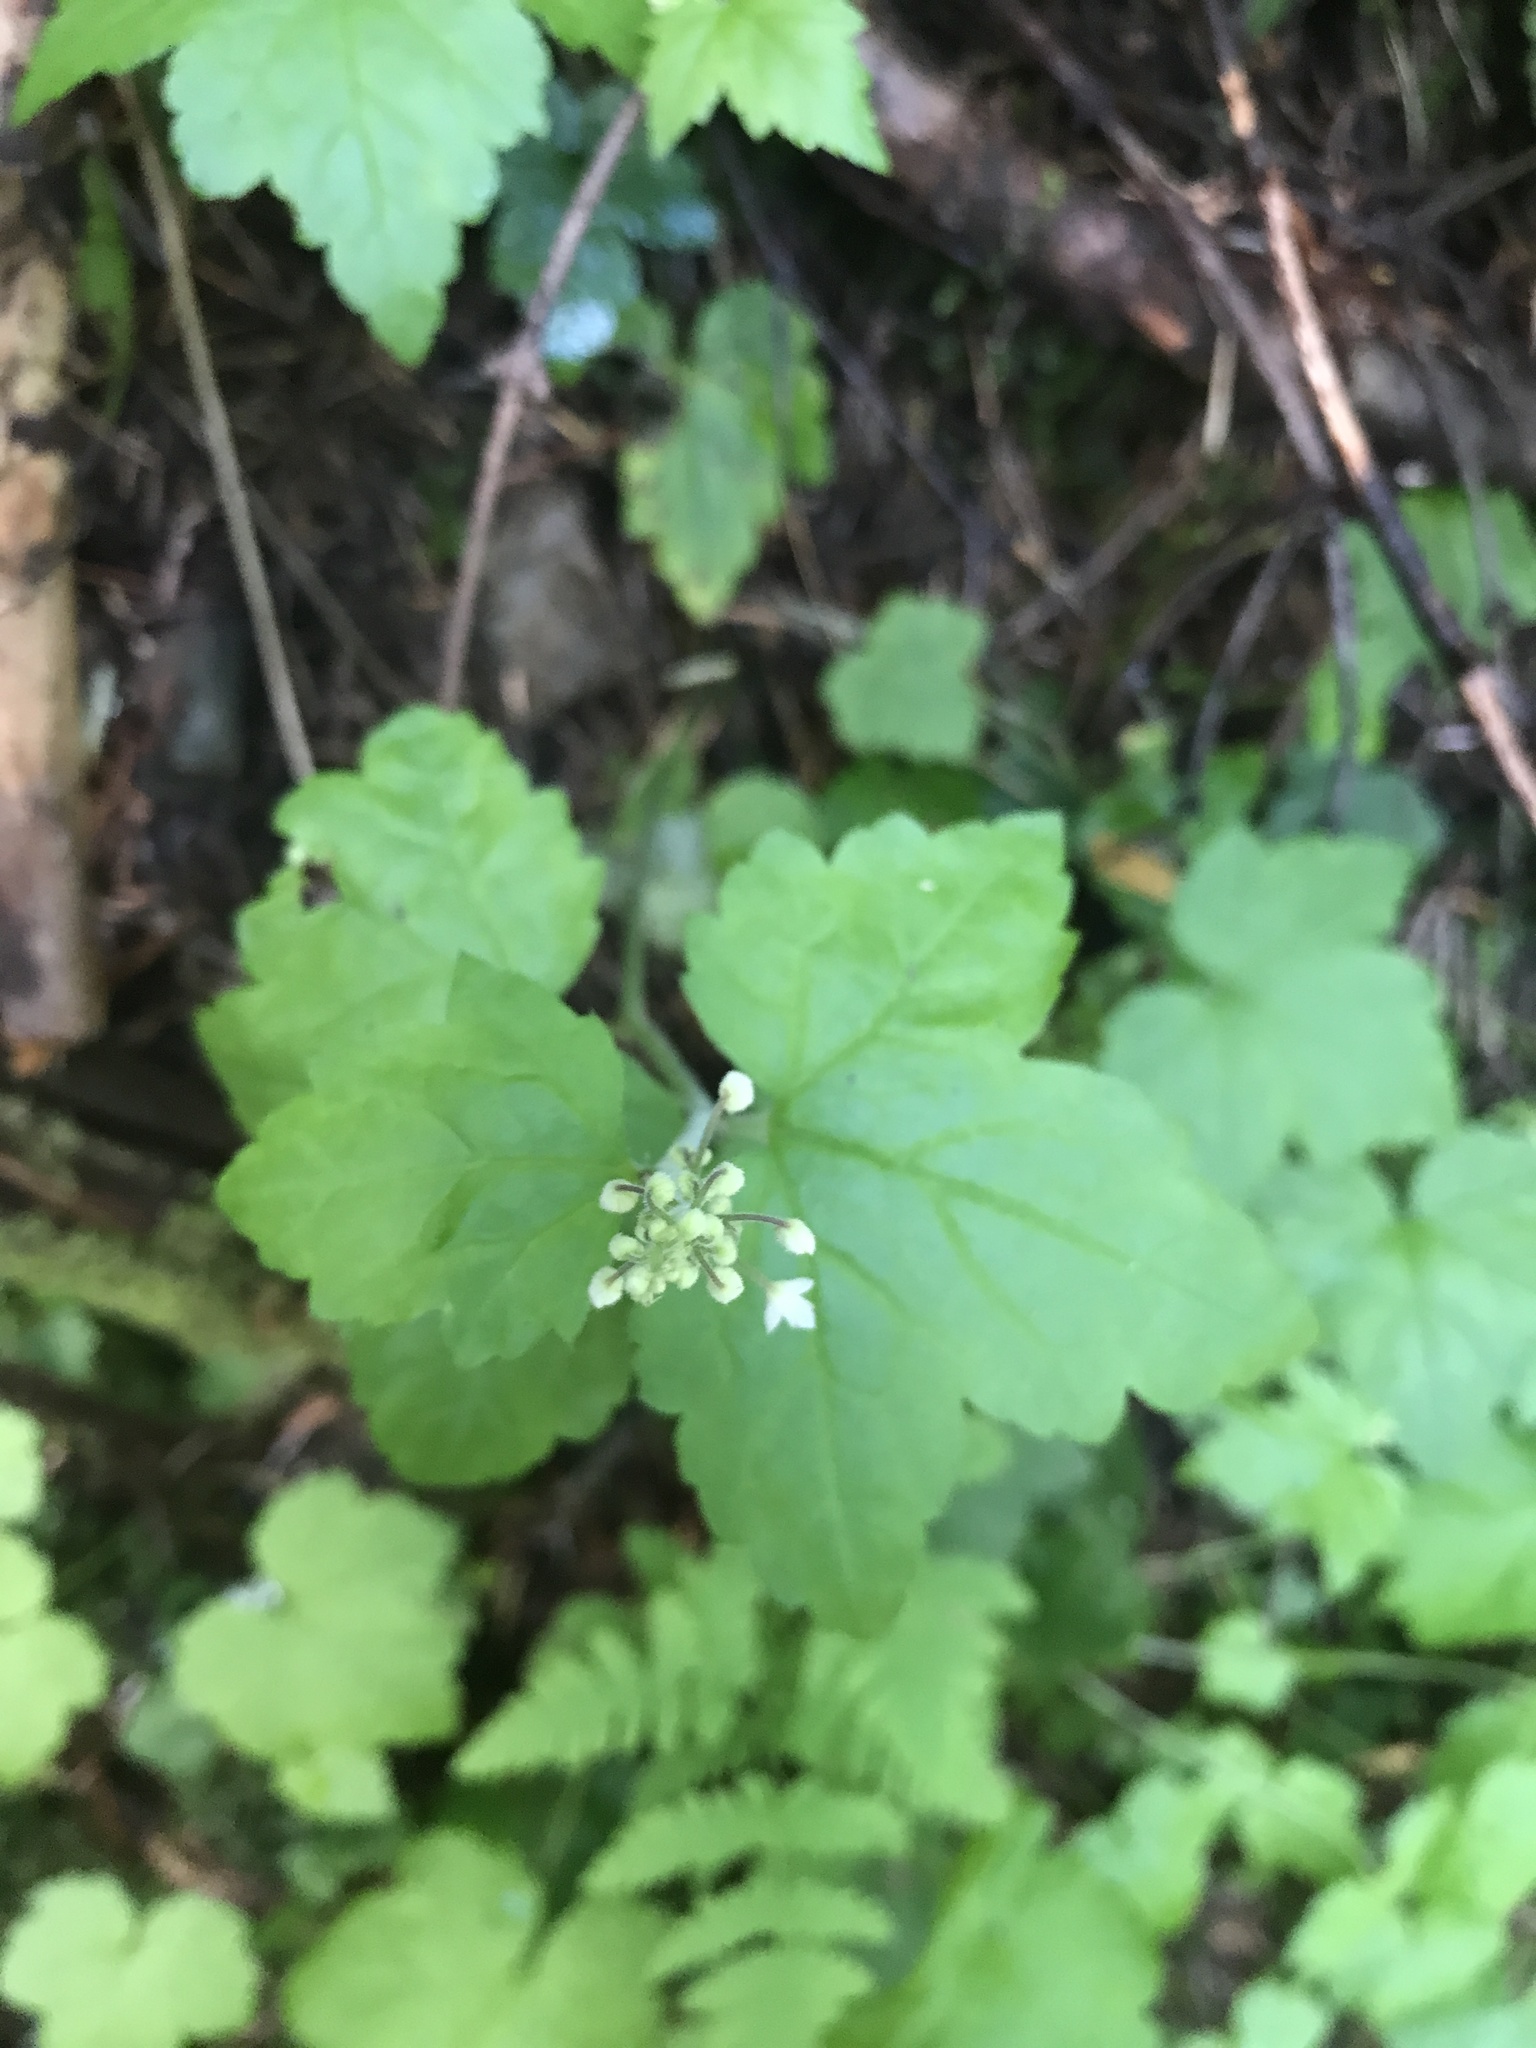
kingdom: Plantae
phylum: Tracheophyta
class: Magnoliopsida
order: Saxifragales
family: Saxifragaceae
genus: Tiarella
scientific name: Tiarella trifoliata
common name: Sugar-scoop
